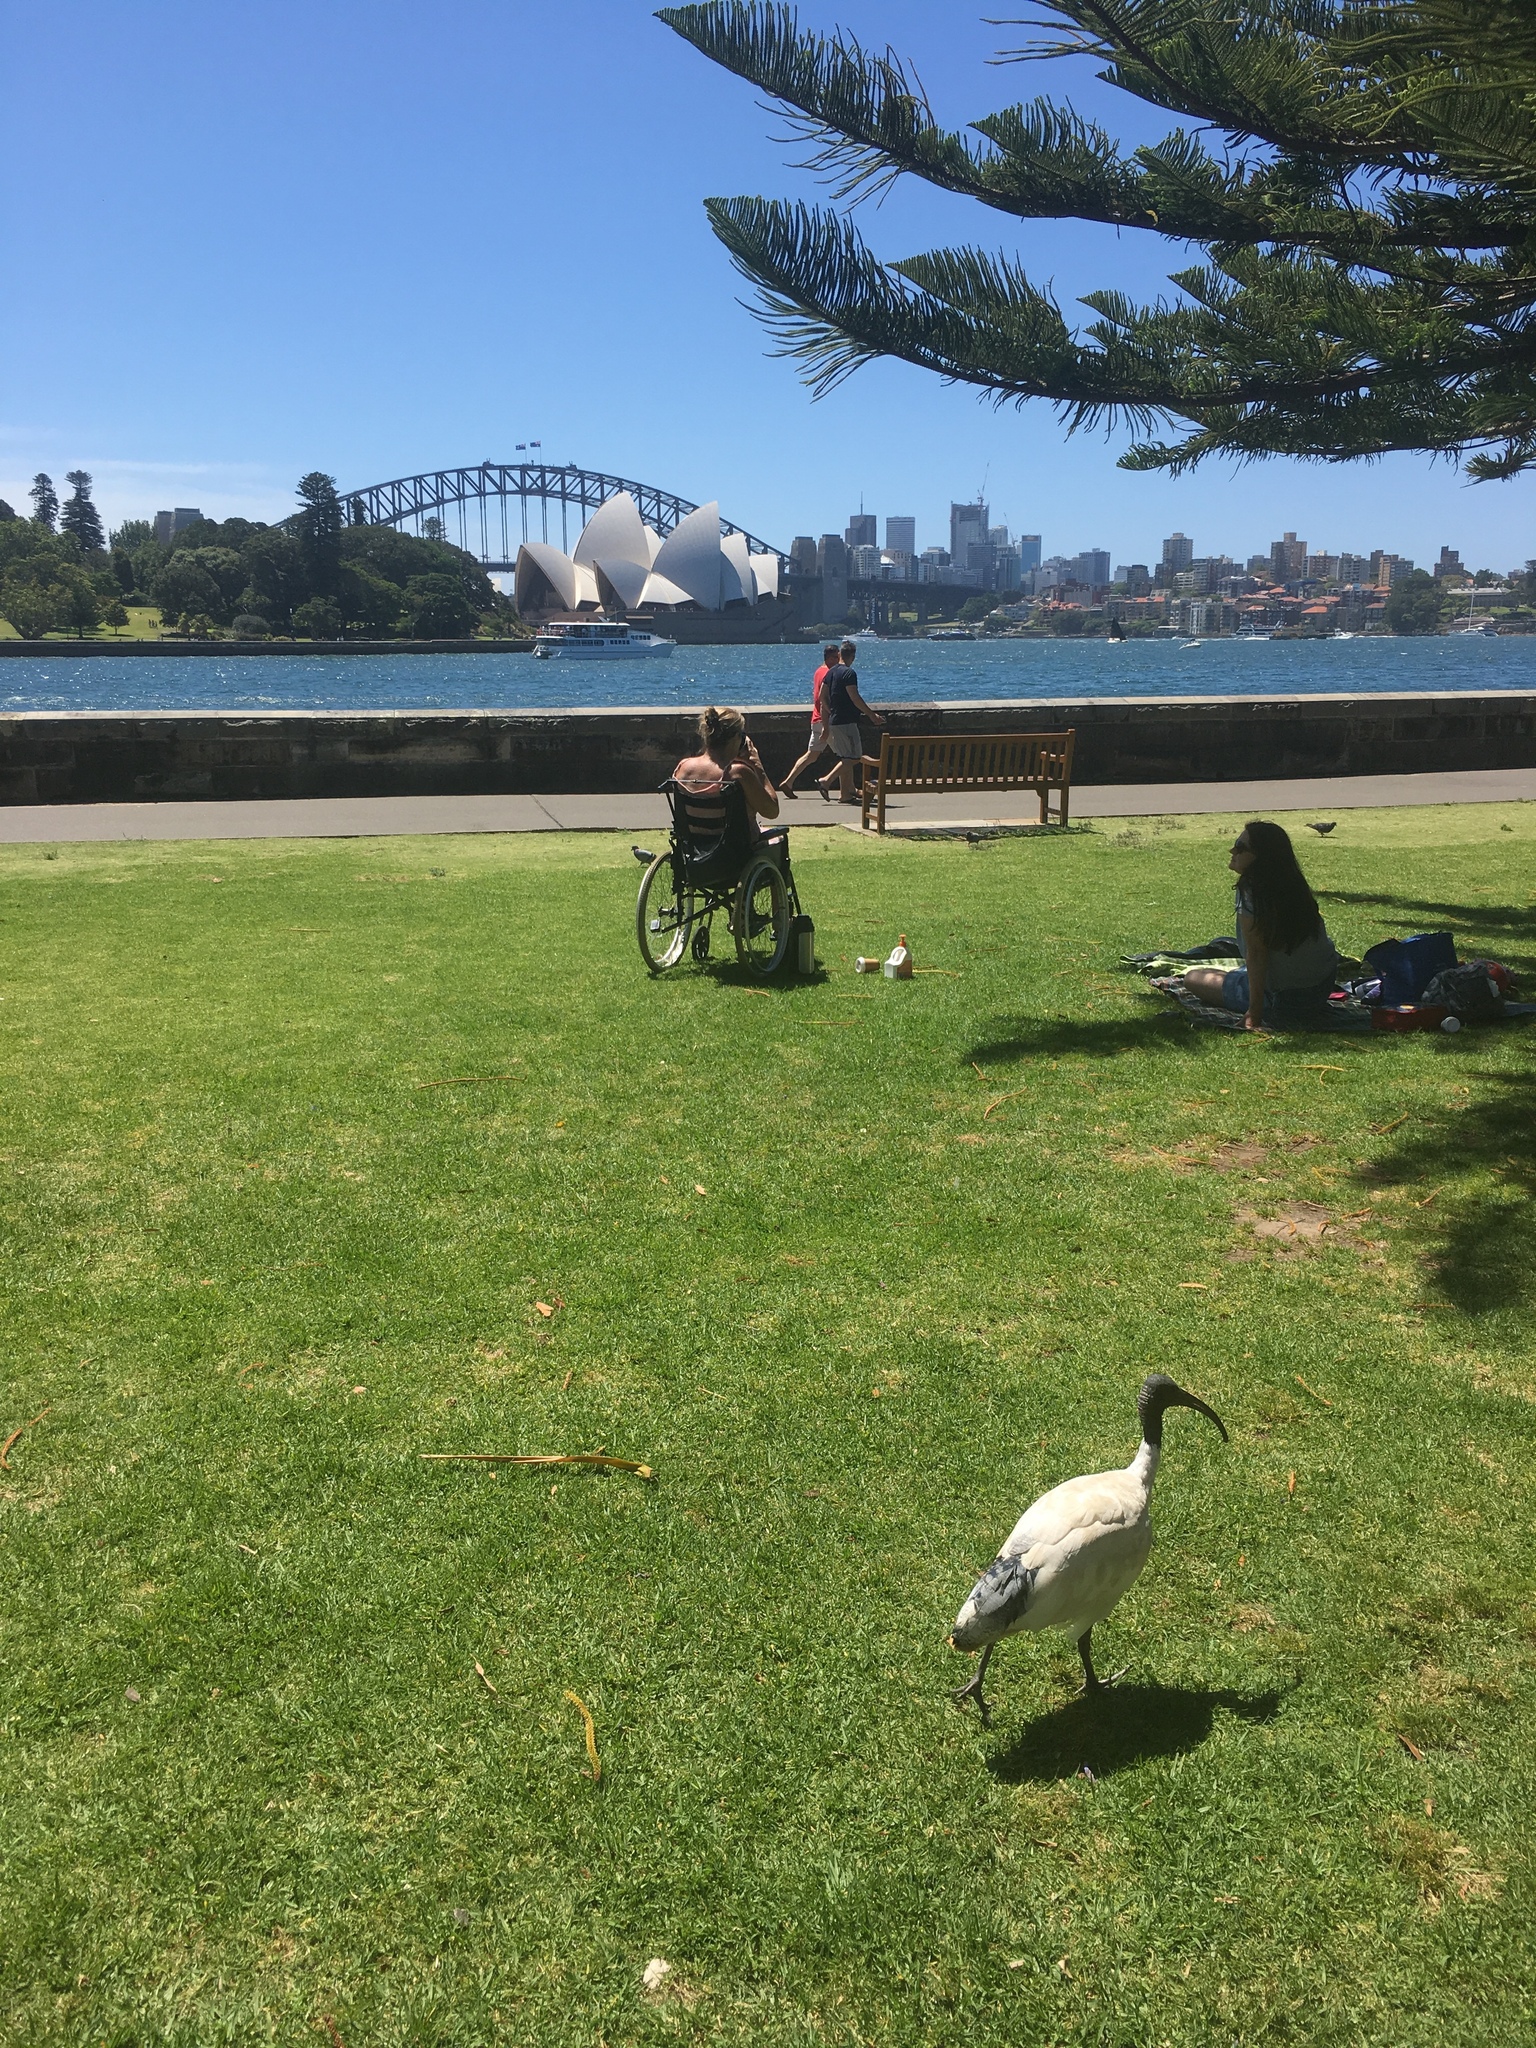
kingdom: Animalia
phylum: Chordata
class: Aves
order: Pelecaniformes
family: Threskiornithidae
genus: Threskiornis
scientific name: Threskiornis molucca
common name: Australian white ibis
